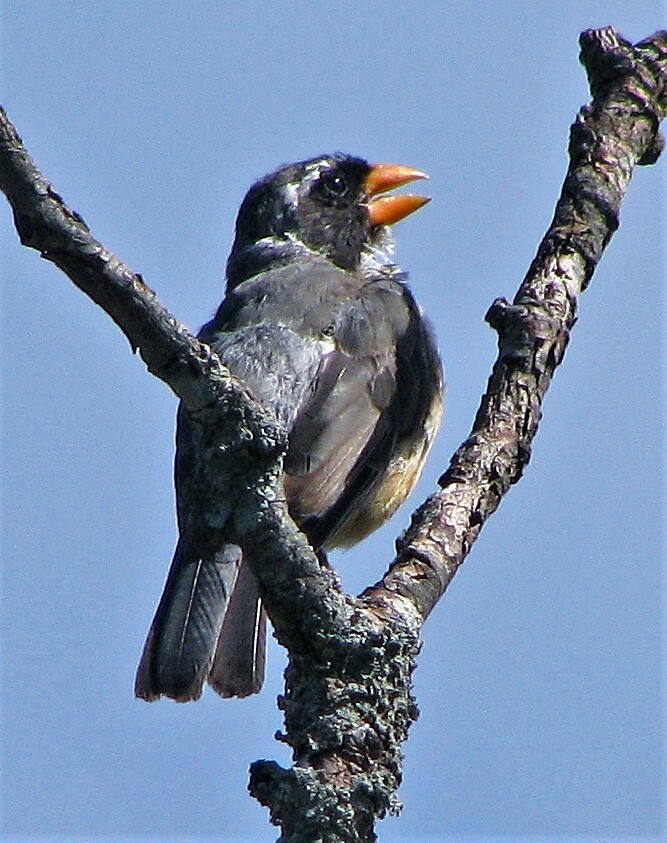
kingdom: Animalia
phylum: Chordata
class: Aves
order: Passeriformes
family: Thraupidae
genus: Saltator
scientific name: Saltator aurantiirostris
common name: Golden-billed saltator
